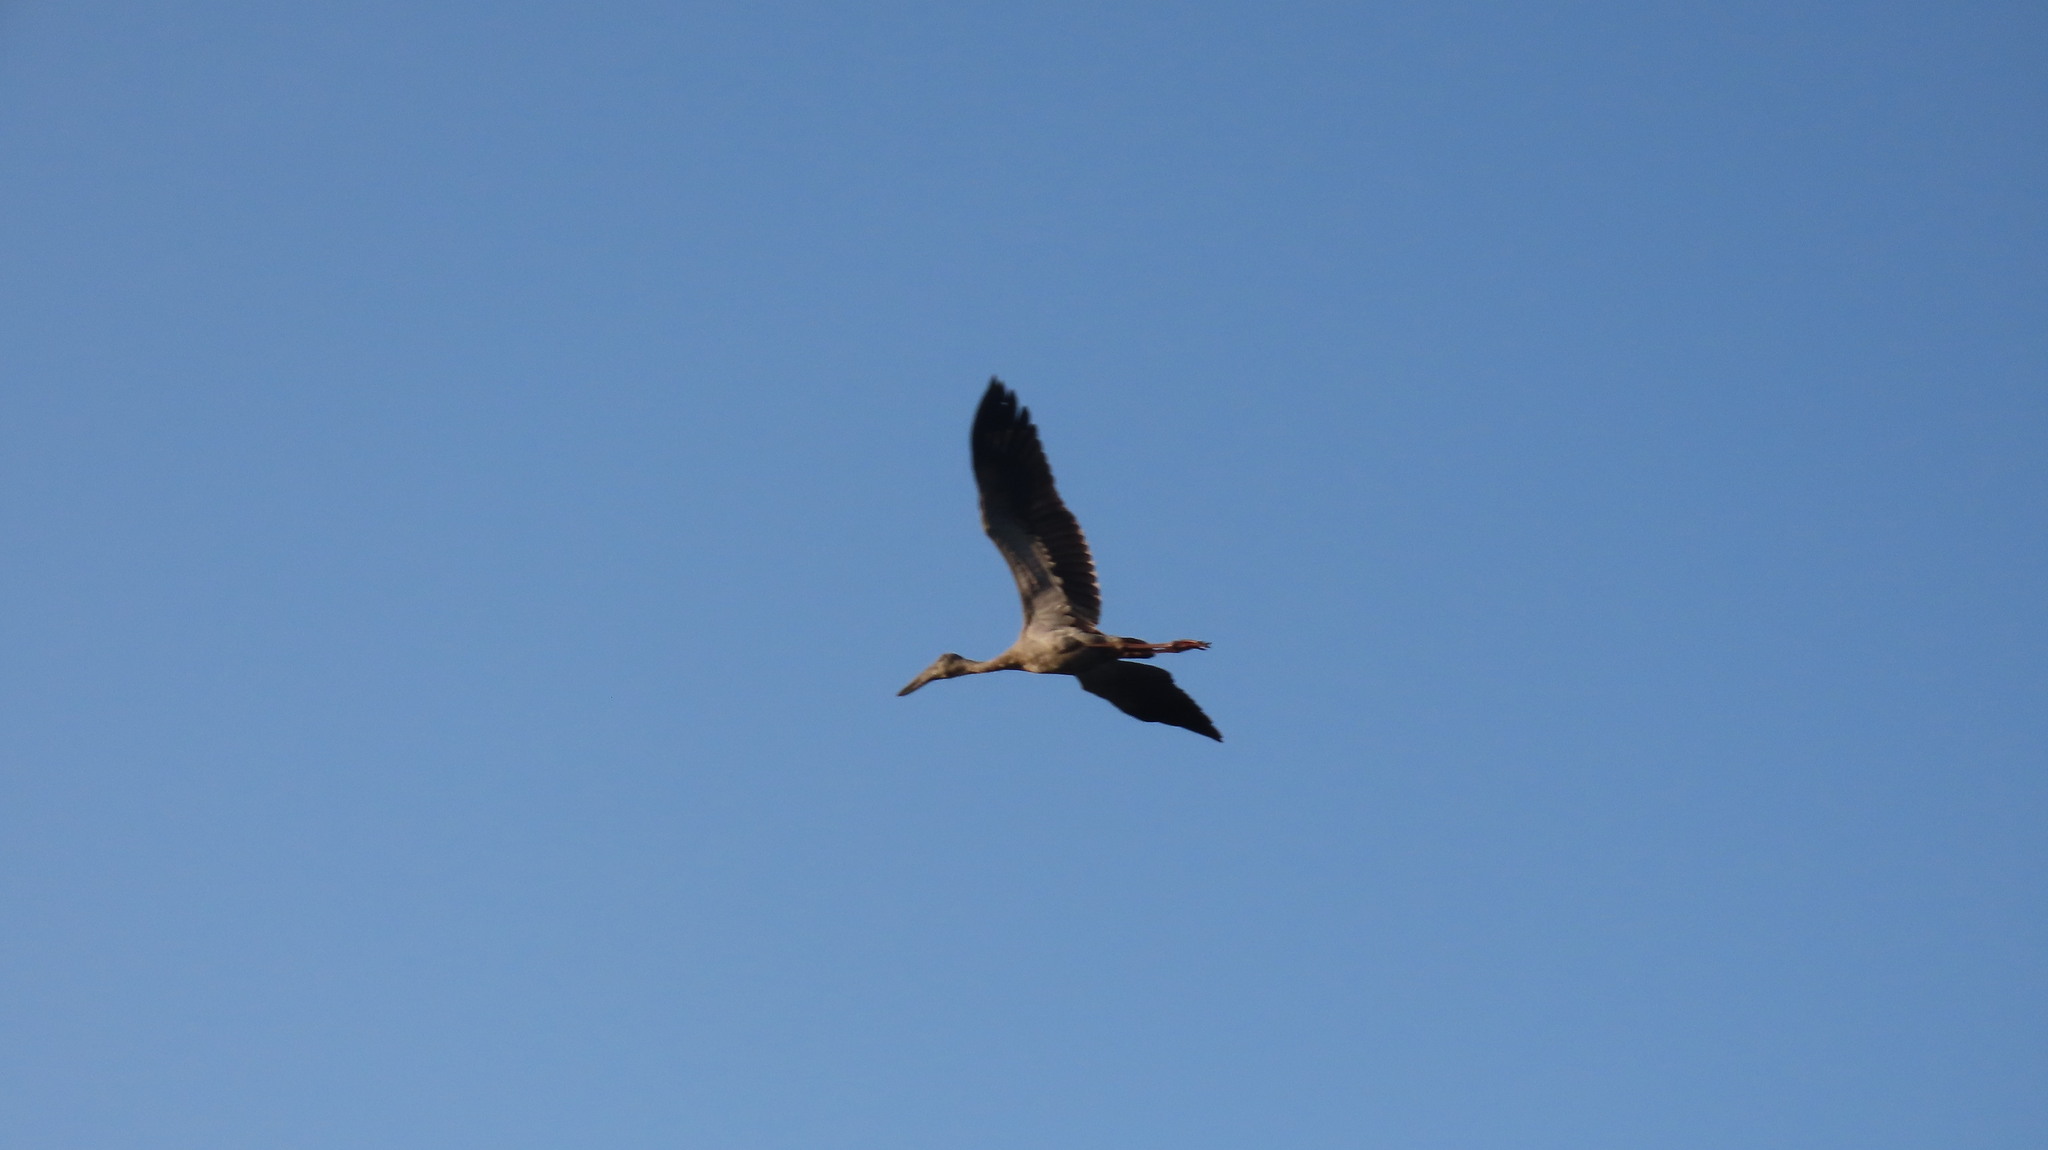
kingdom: Animalia
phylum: Chordata
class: Aves
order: Ciconiiformes
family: Ciconiidae
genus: Anastomus
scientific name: Anastomus oscitans
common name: Asian openbill
